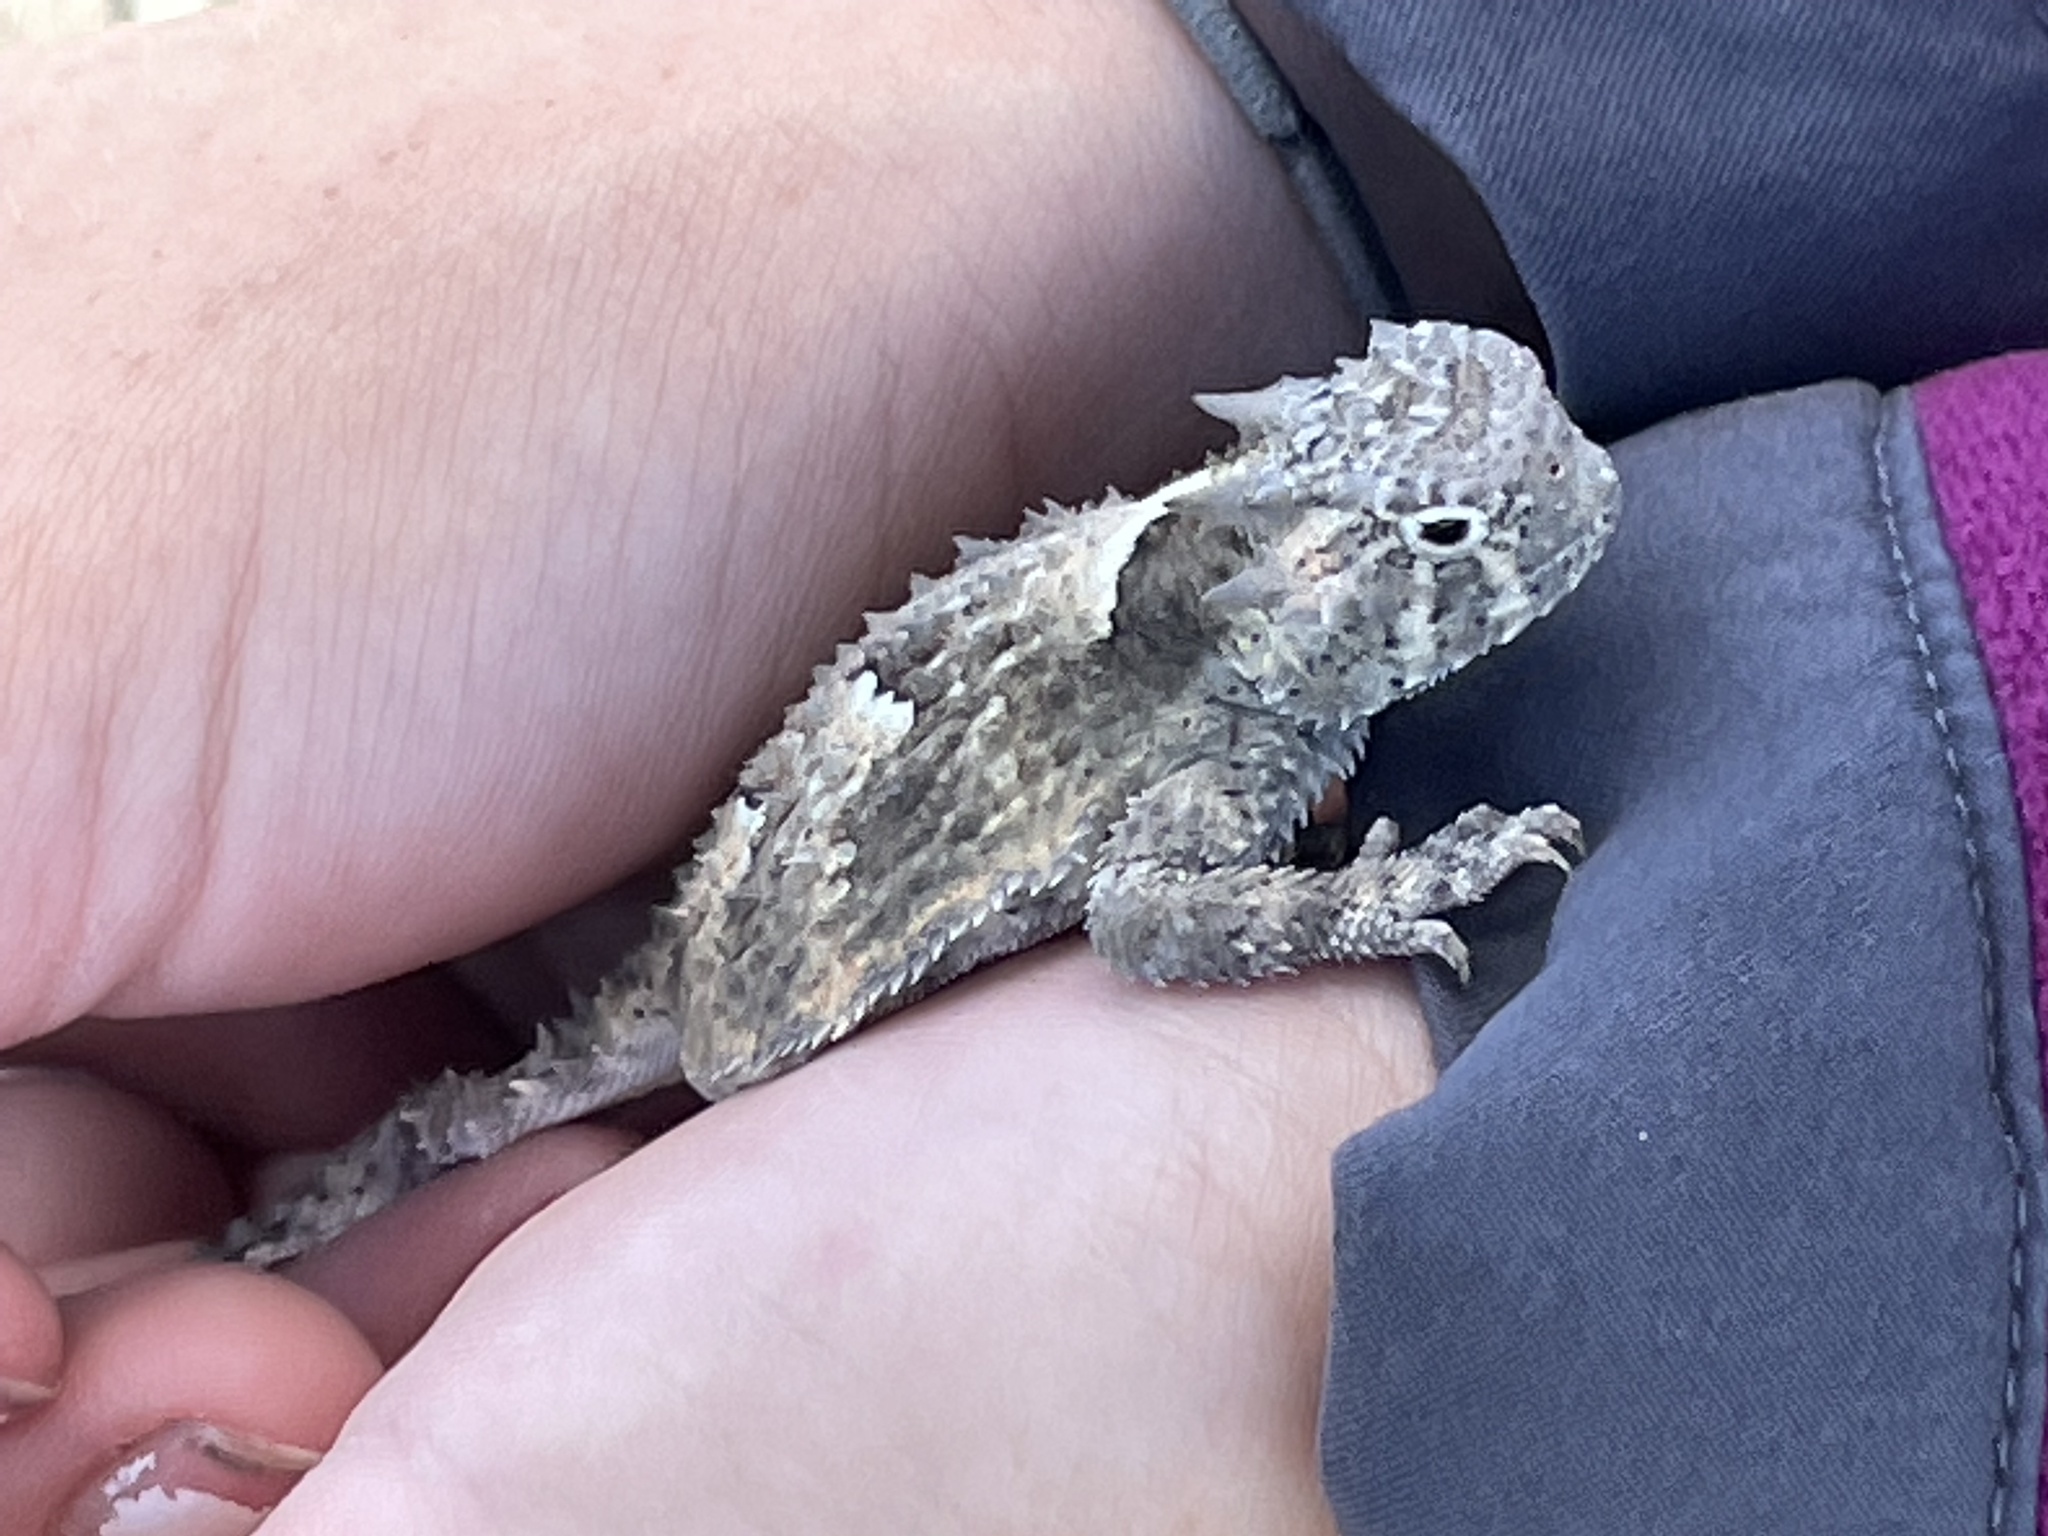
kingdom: Animalia
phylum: Chordata
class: Squamata
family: Phrynosomatidae
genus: Phrynosoma
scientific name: Phrynosoma platyrhinos
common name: Desert horned lizard
